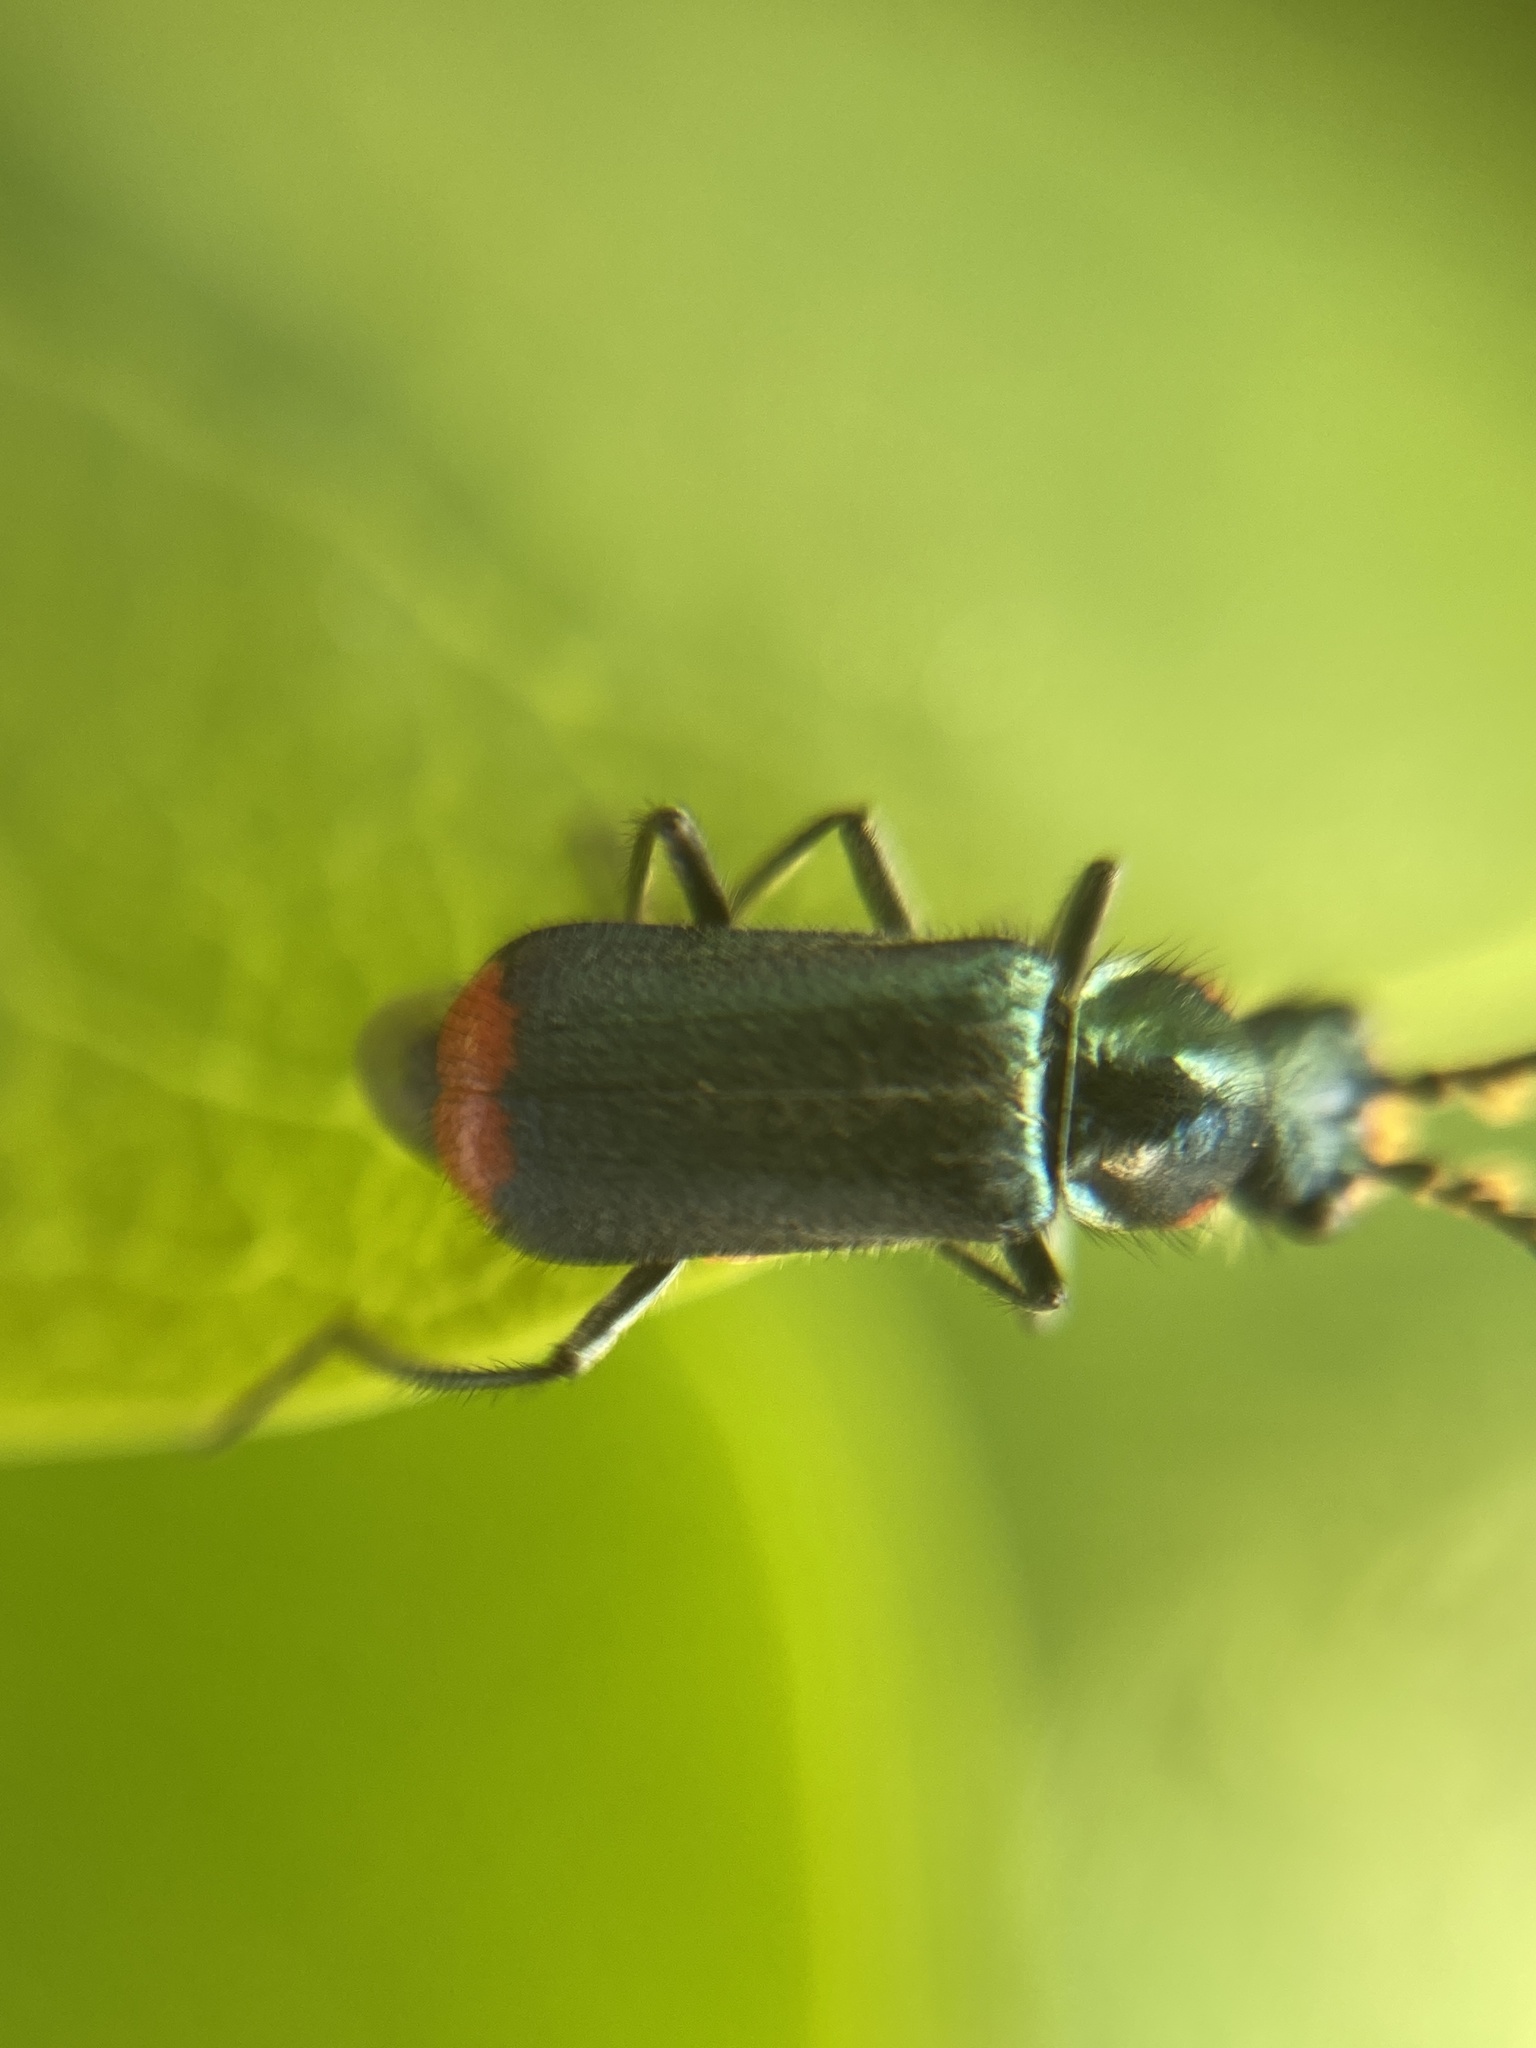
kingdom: Animalia
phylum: Arthropoda
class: Insecta
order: Coleoptera
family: Melyridae
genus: Malachius
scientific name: Malachius bipustulatus
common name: Malachite beetle
